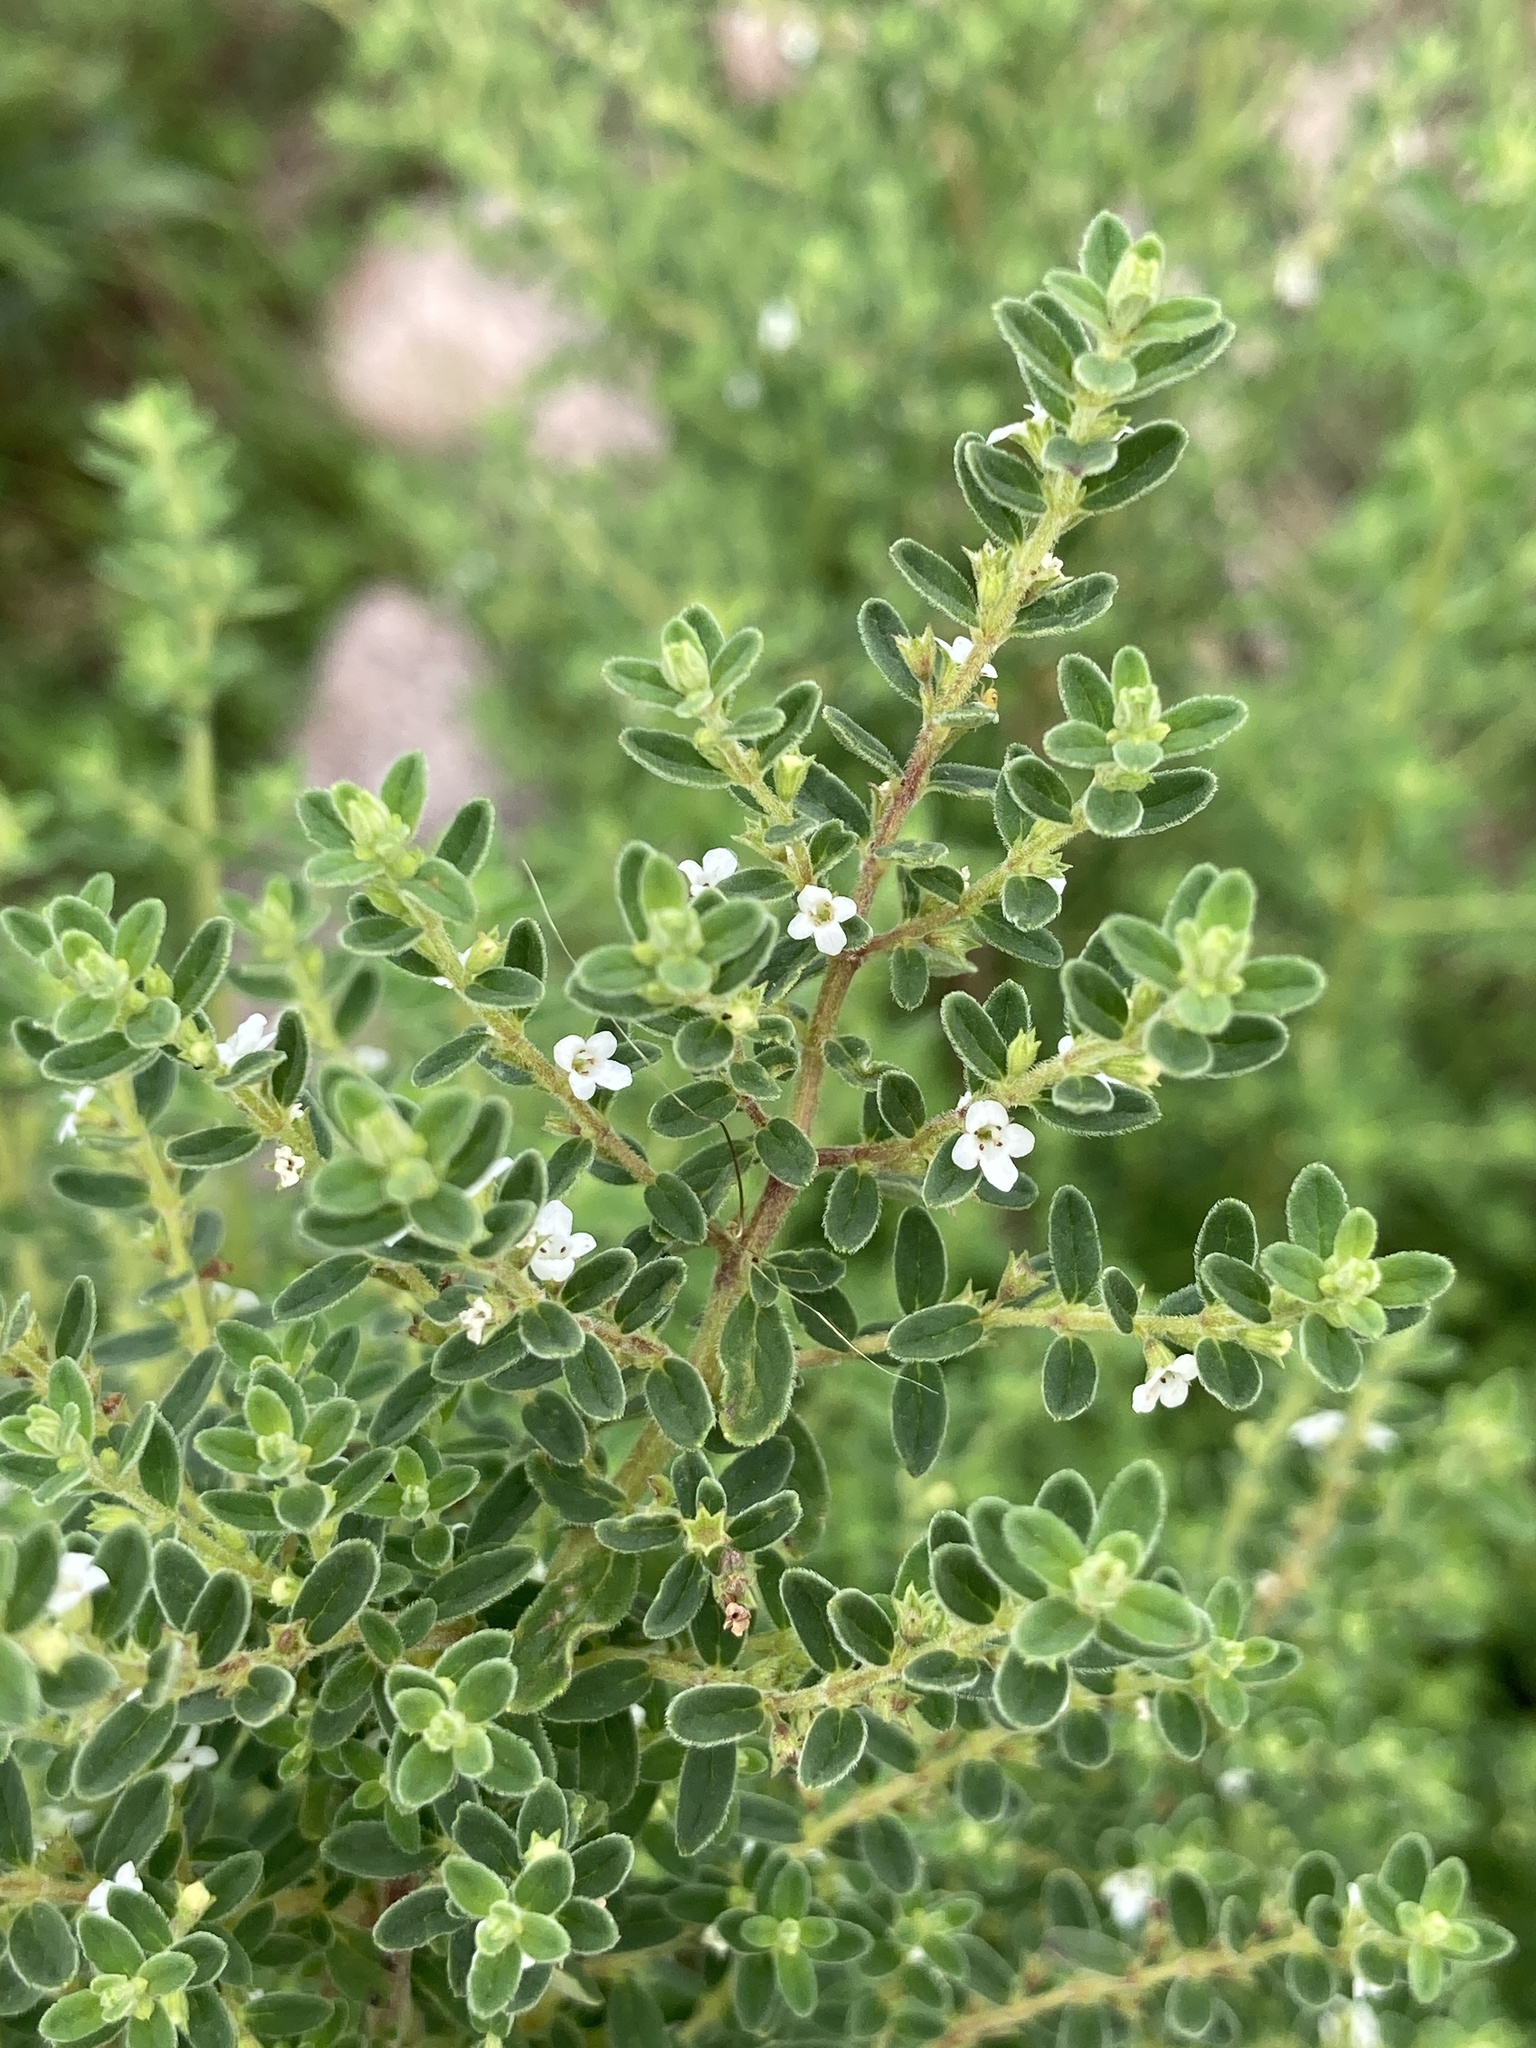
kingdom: Plantae
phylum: Tracheophyta
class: Magnoliopsida
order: Lamiales
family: Lamiaceae
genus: Clinopodium
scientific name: Clinopodium gilliesii
